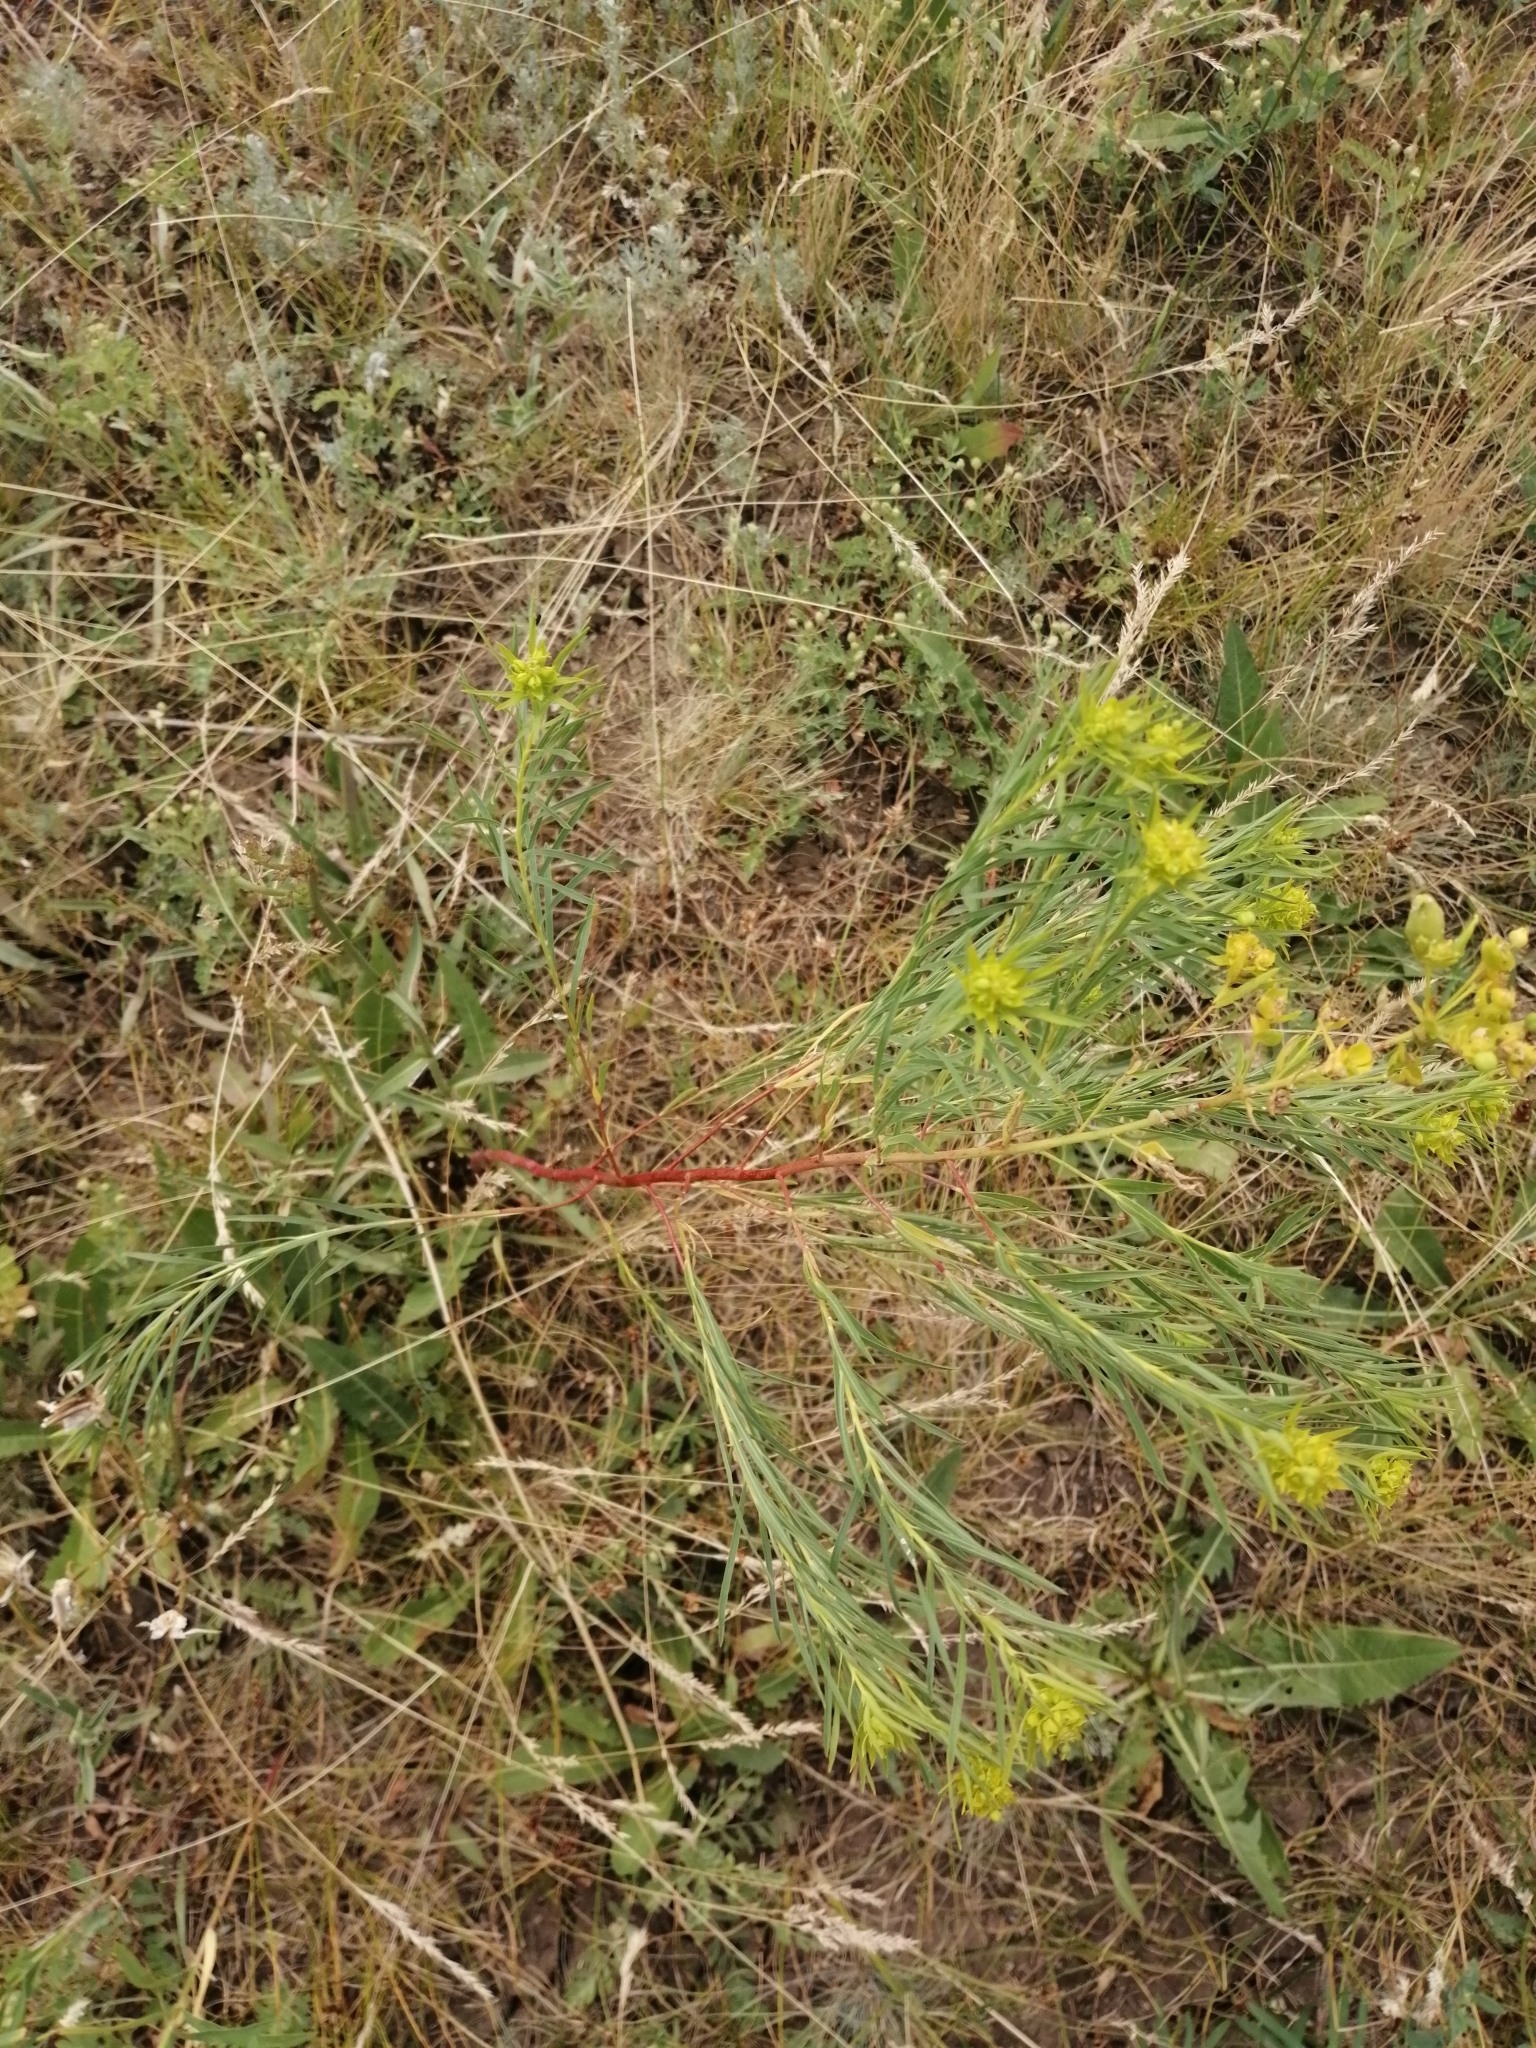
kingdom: Plantae
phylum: Tracheophyta
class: Magnoliopsida
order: Malpighiales
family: Euphorbiaceae
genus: Euphorbia
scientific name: Euphorbia uralensis
